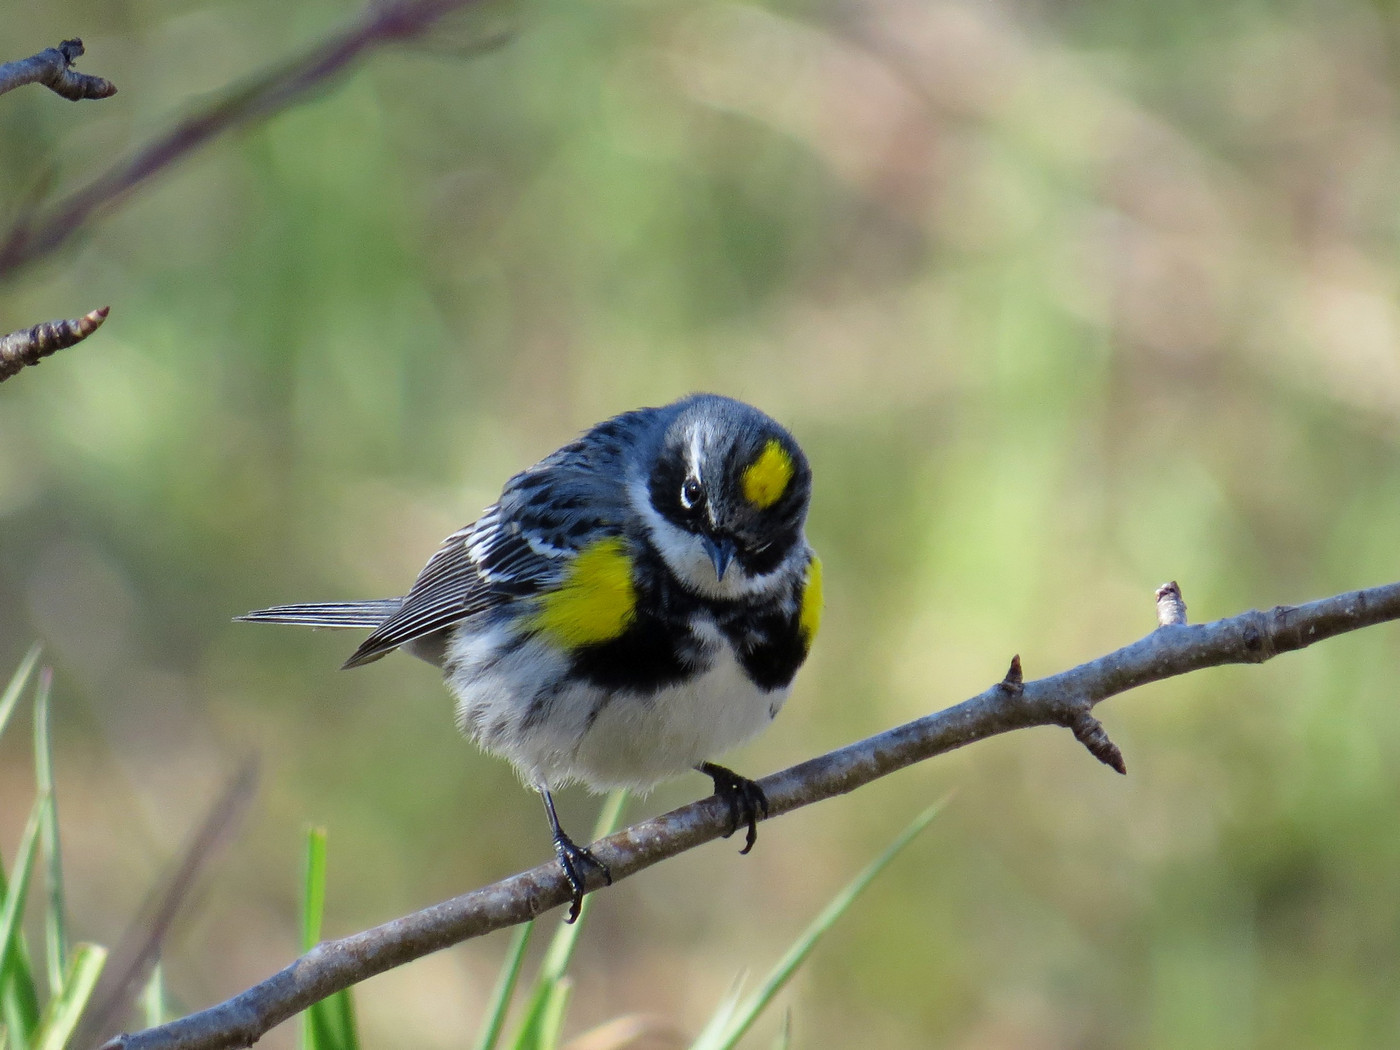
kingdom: Animalia
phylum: Chordata
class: Aves
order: Passeriformes
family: Parulidae
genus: Setophaga
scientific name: Setophaga coronata
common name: Myrtle warbler
